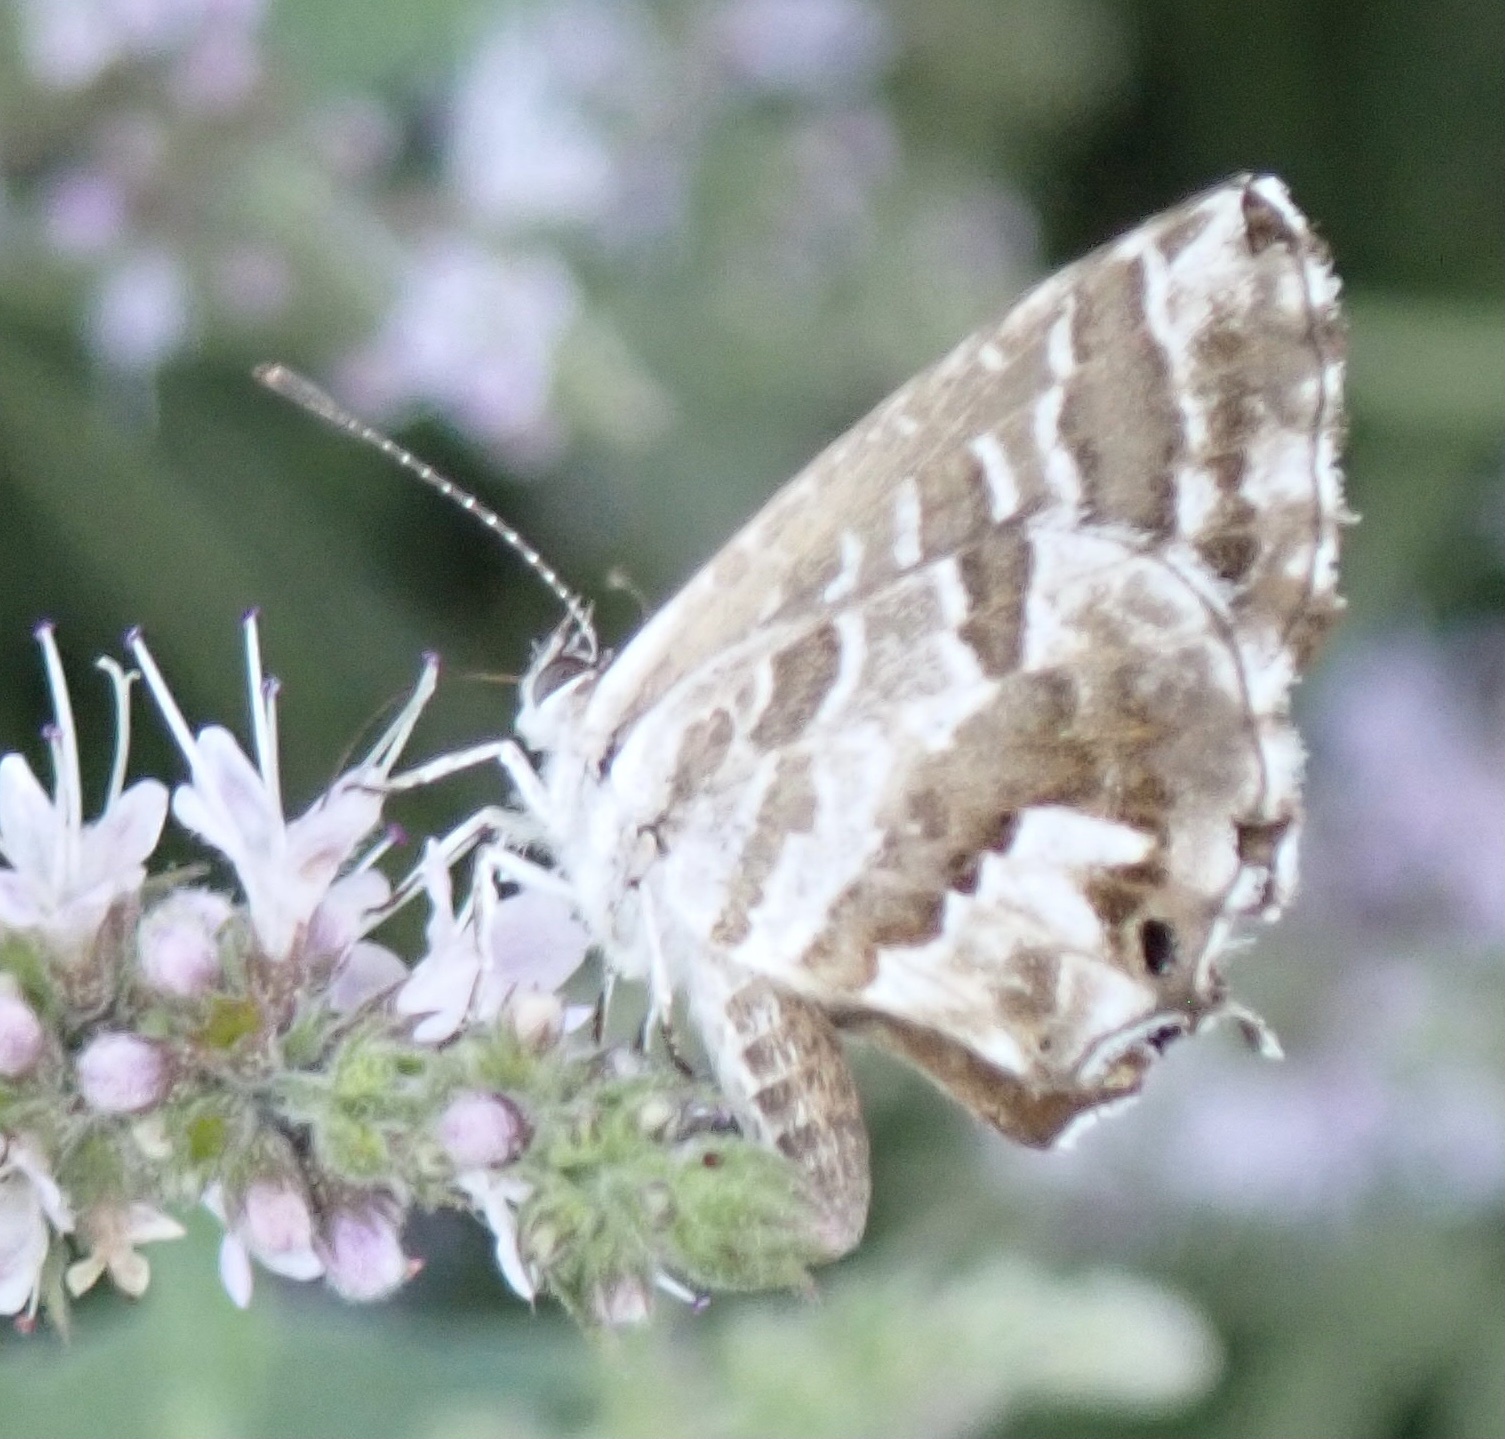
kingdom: Animalia
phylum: Arthropoda
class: Insecta
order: Lepidoptera
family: Lycaenidae
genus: Cacyreus
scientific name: Cacyreus marshalli
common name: Geranium bronze
